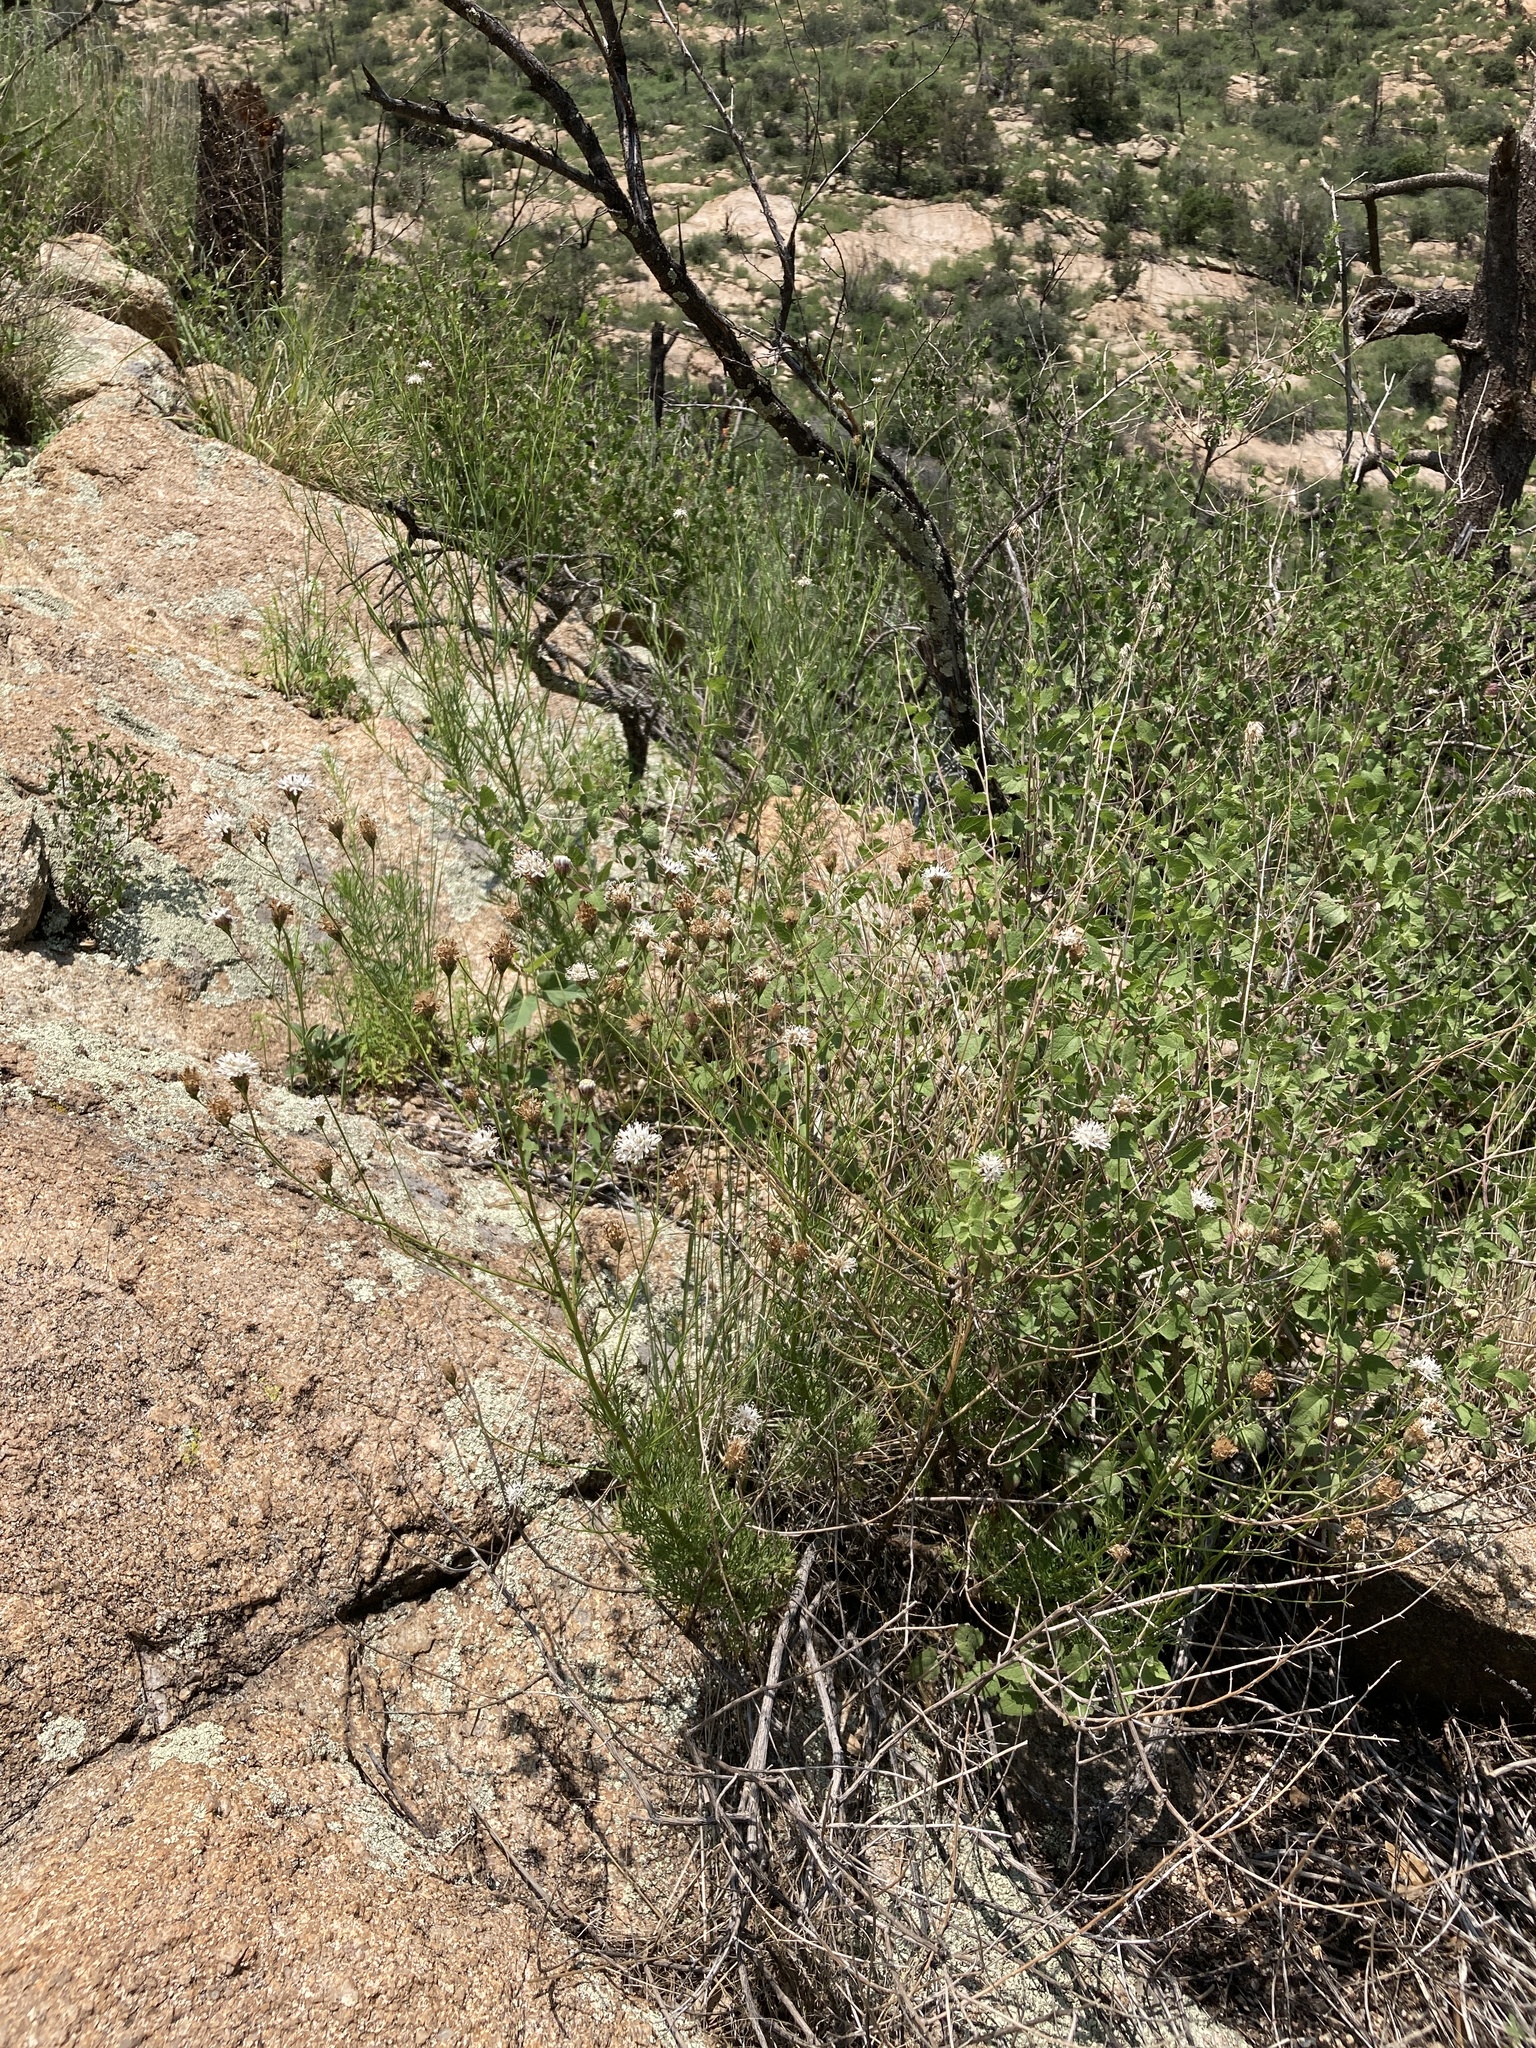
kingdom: Plantae
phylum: Tracheophyta
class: Magnoliopsida
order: Asterales
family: Asteraceae
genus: Hymenothrix
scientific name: Hymenothrix wrightii
